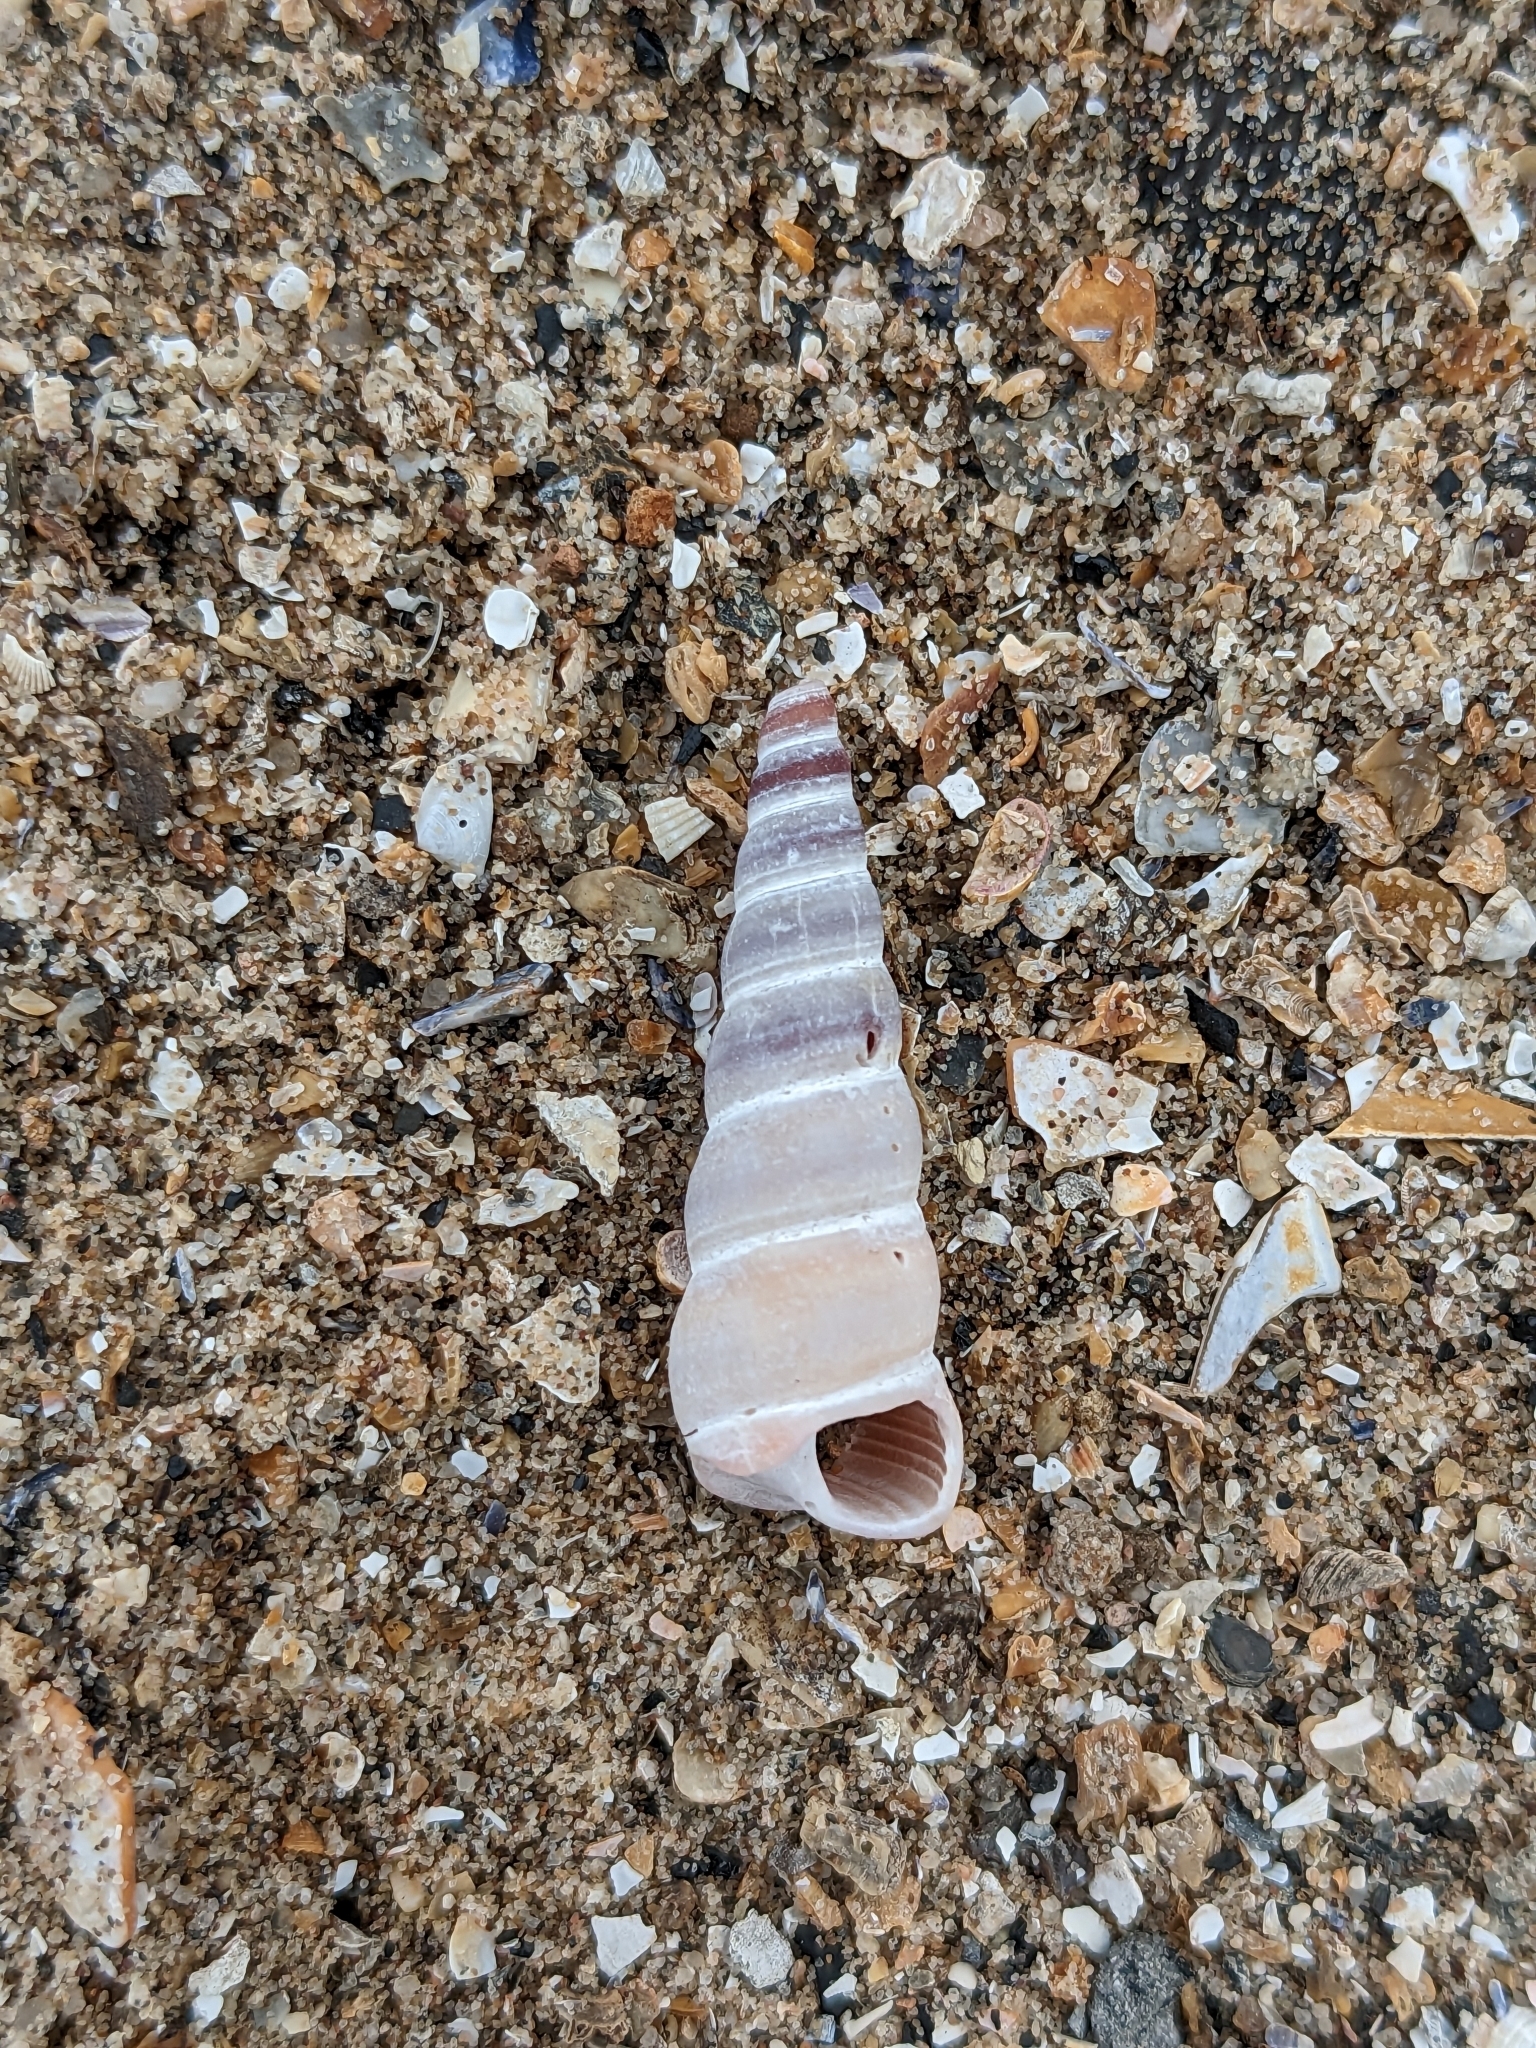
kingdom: Animalia
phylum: Mollusca
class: Gastropoda
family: Turritellidae
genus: Turritellinella
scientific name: Turritellinella tricarinata
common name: Auger shell
